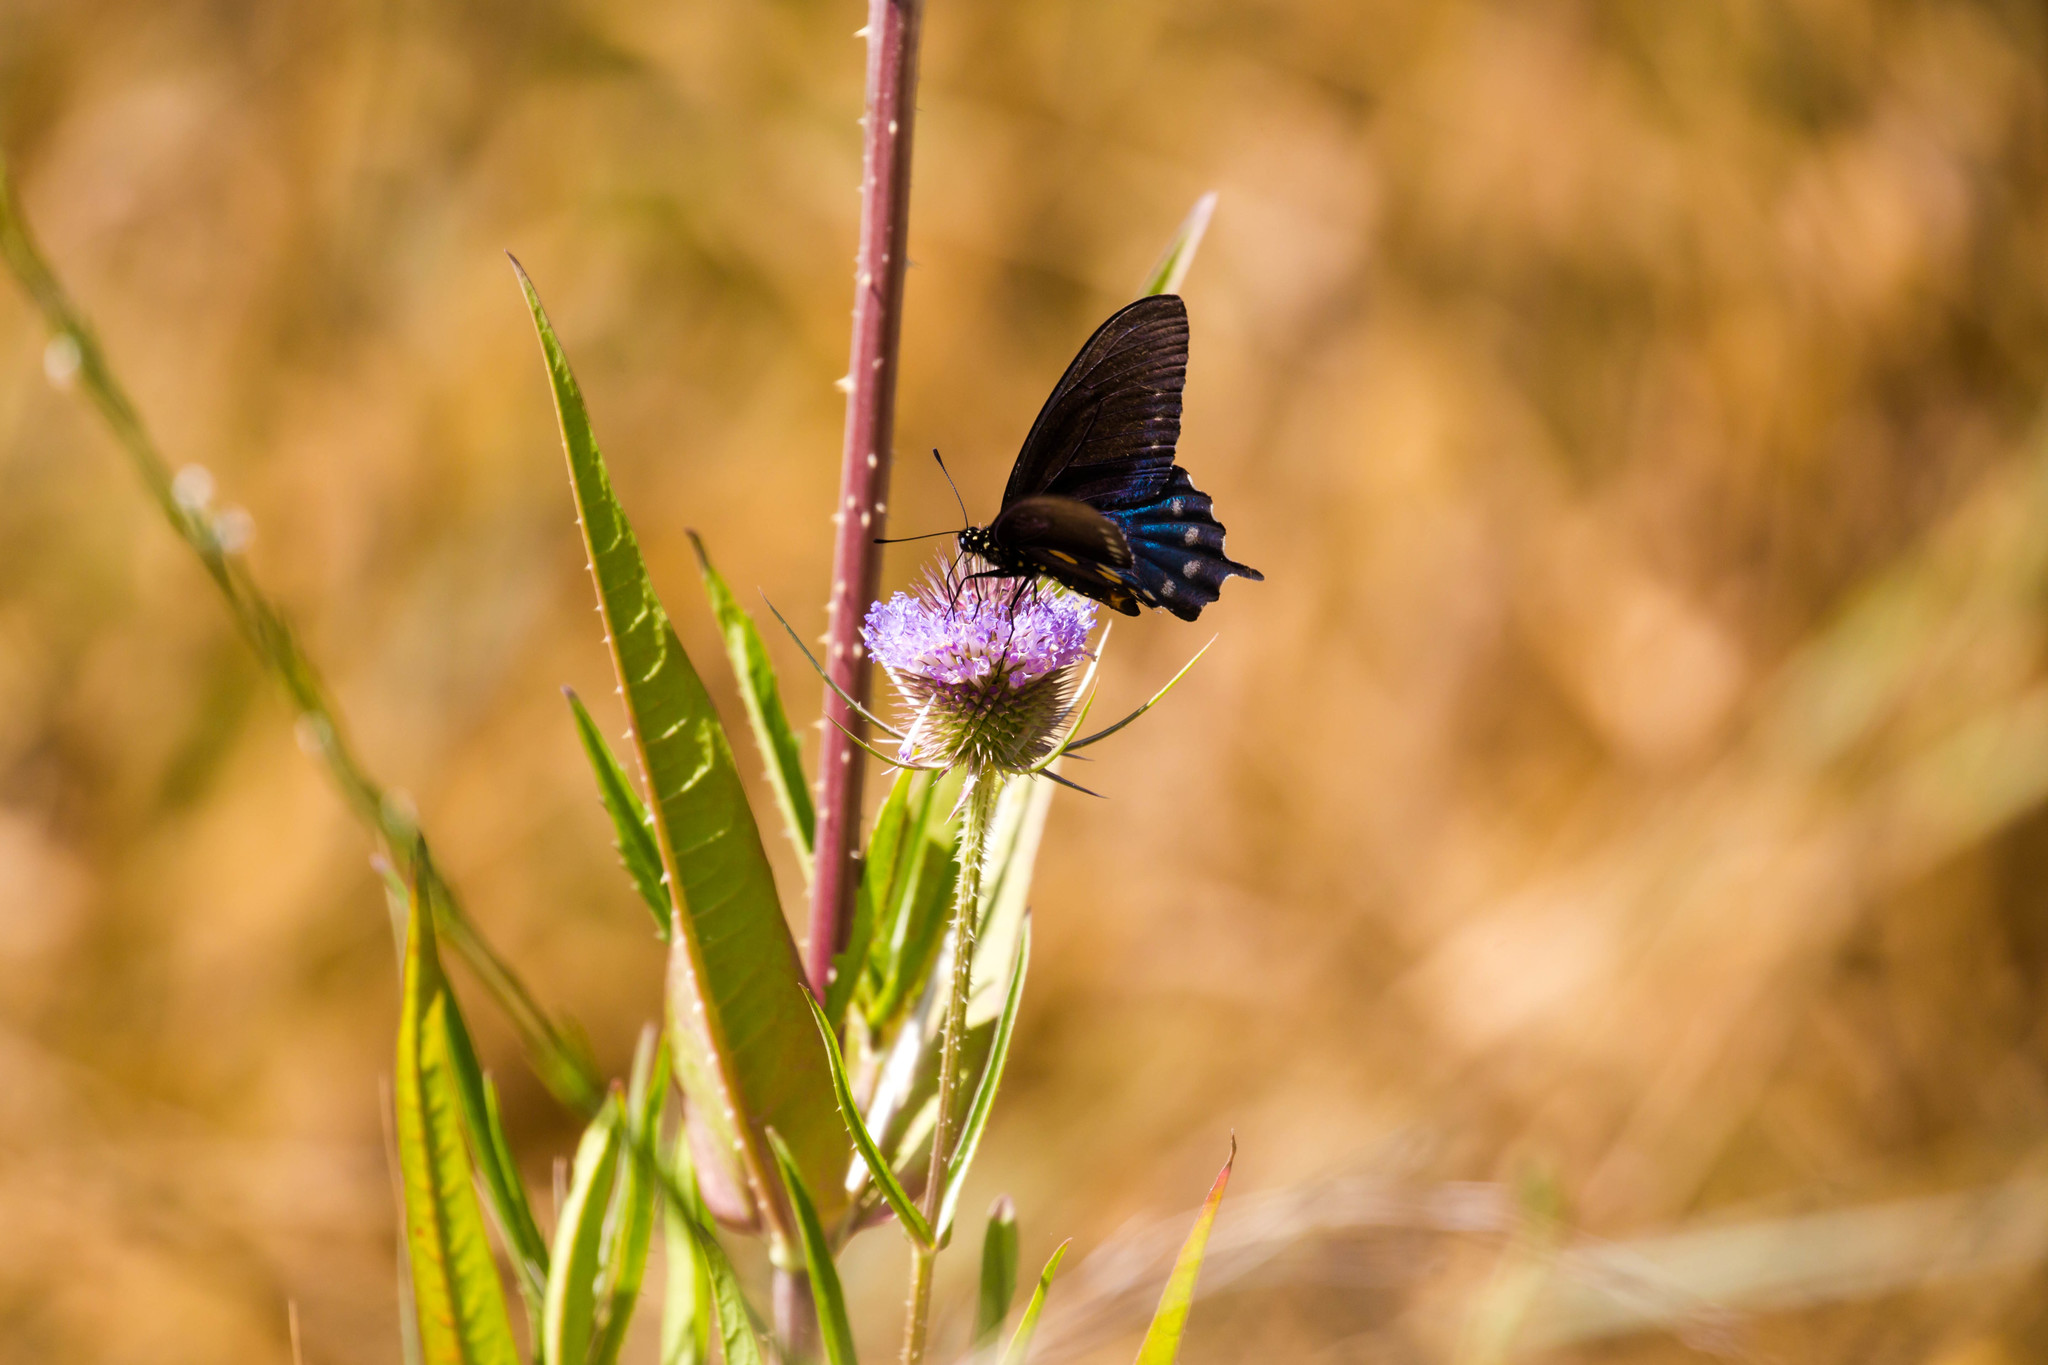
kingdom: Animalia
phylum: Arthropoda
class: Insecta
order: Lepidoptera
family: Papilionidae
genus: Battus
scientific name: Battus philenor
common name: Pipevine swallowtail
